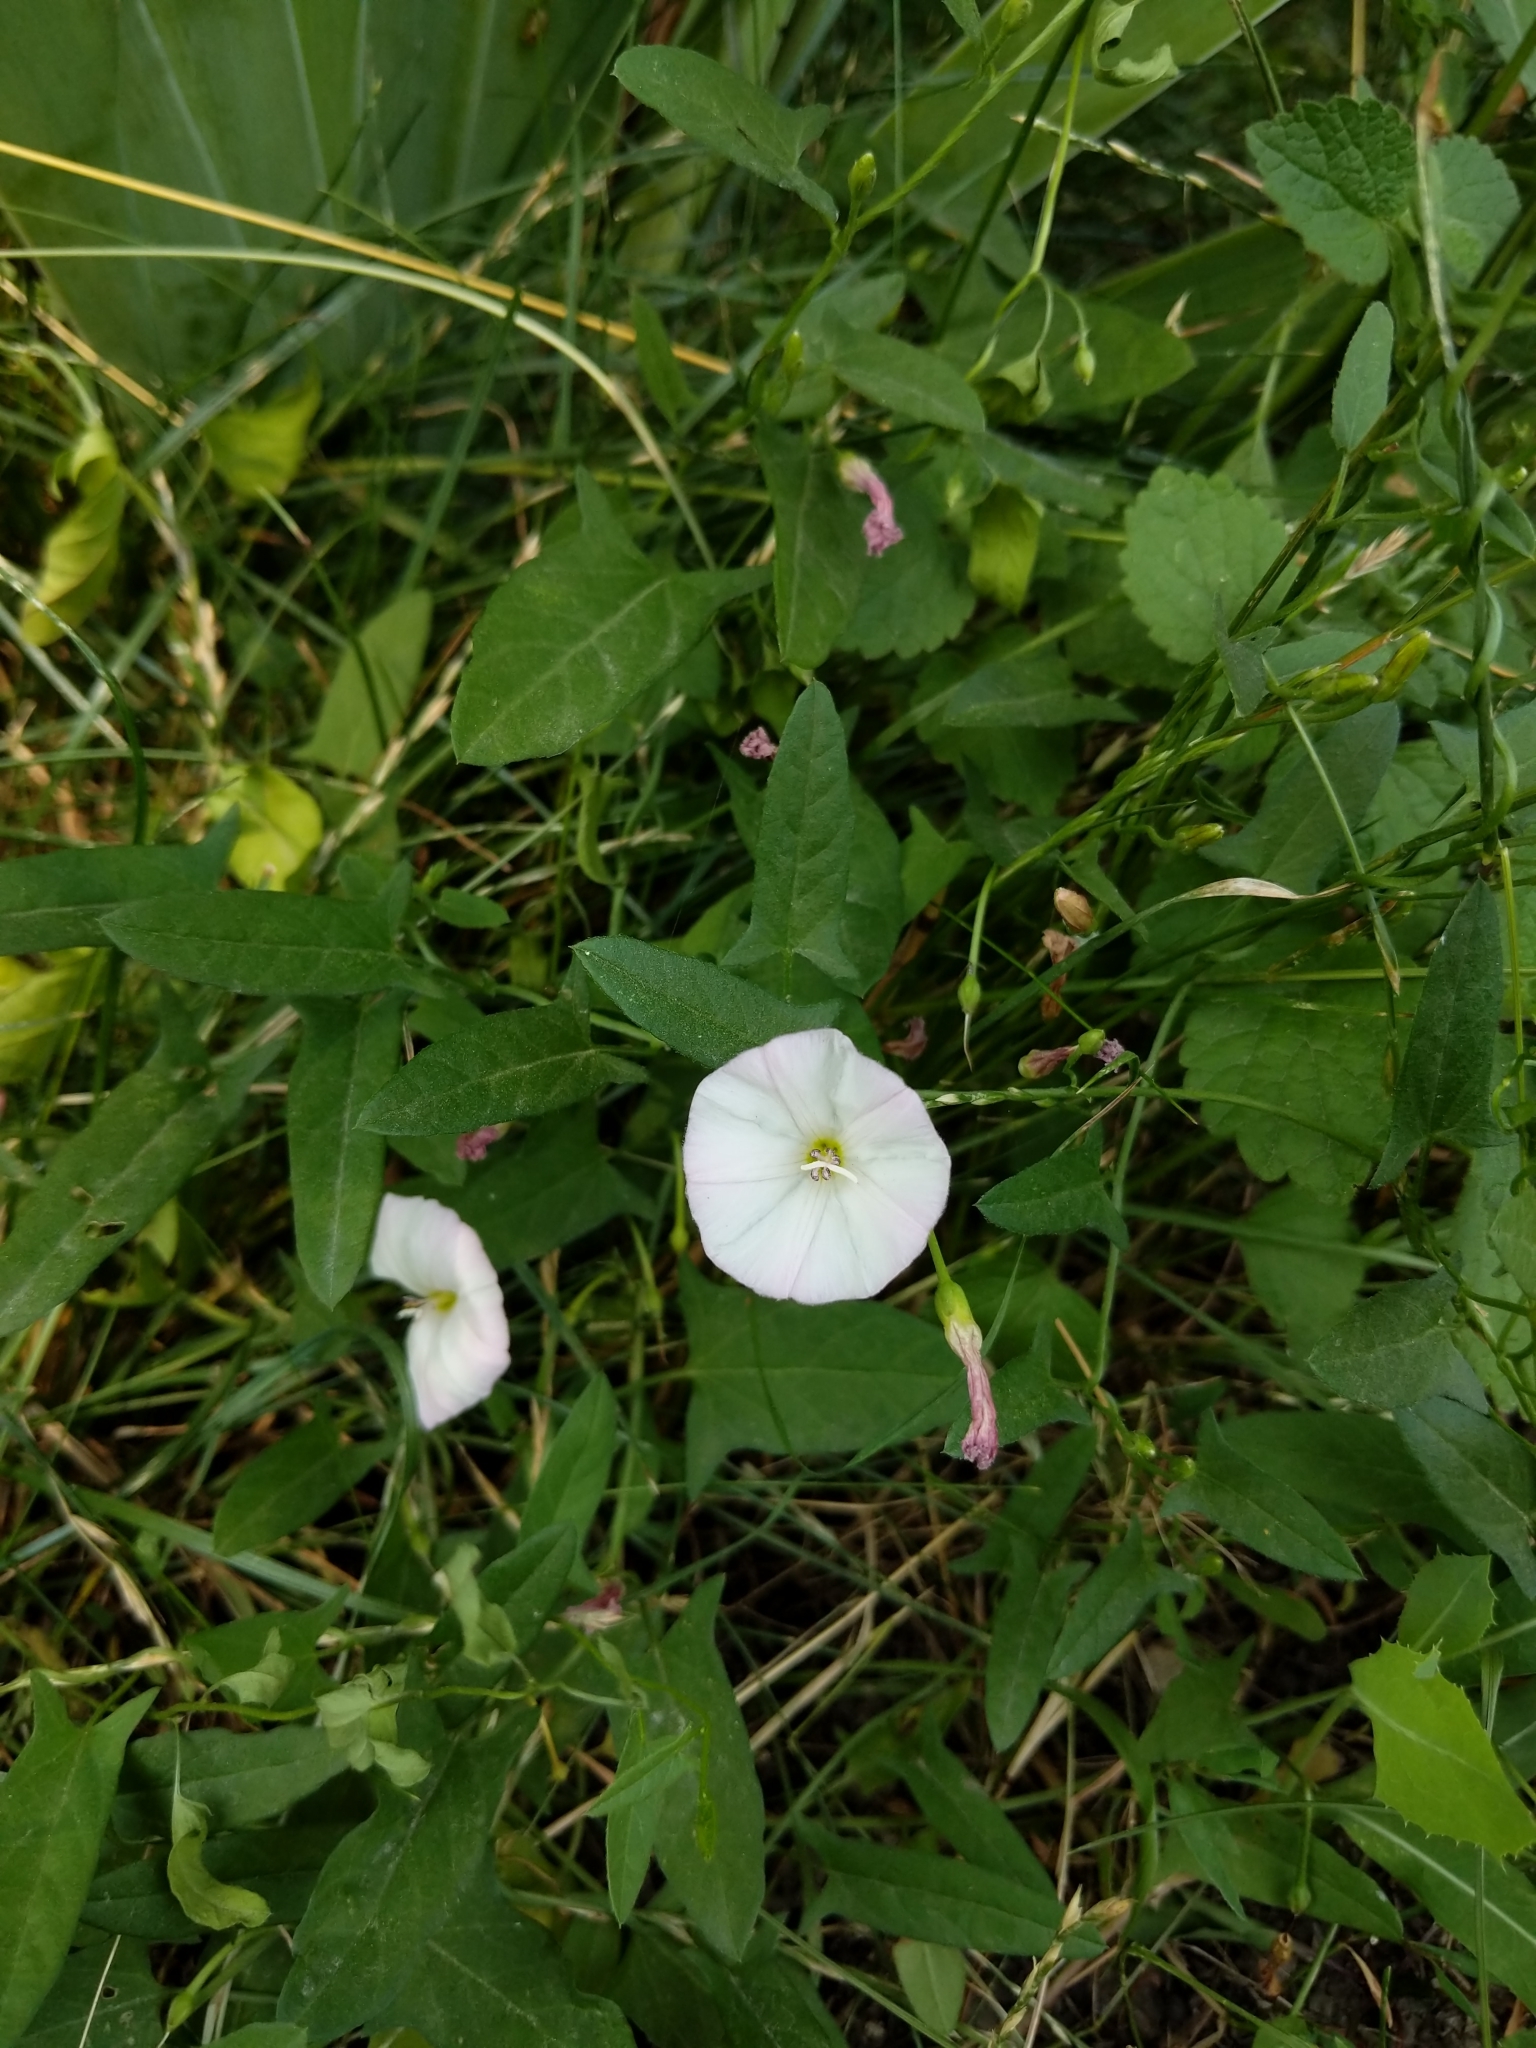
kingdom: Plantae
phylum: Tracheophyta
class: Magnoliopsida
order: Solanales
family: Convolvulaceae
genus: Convolvulus
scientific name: Convolvulus arvensis
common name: Field bindweed
